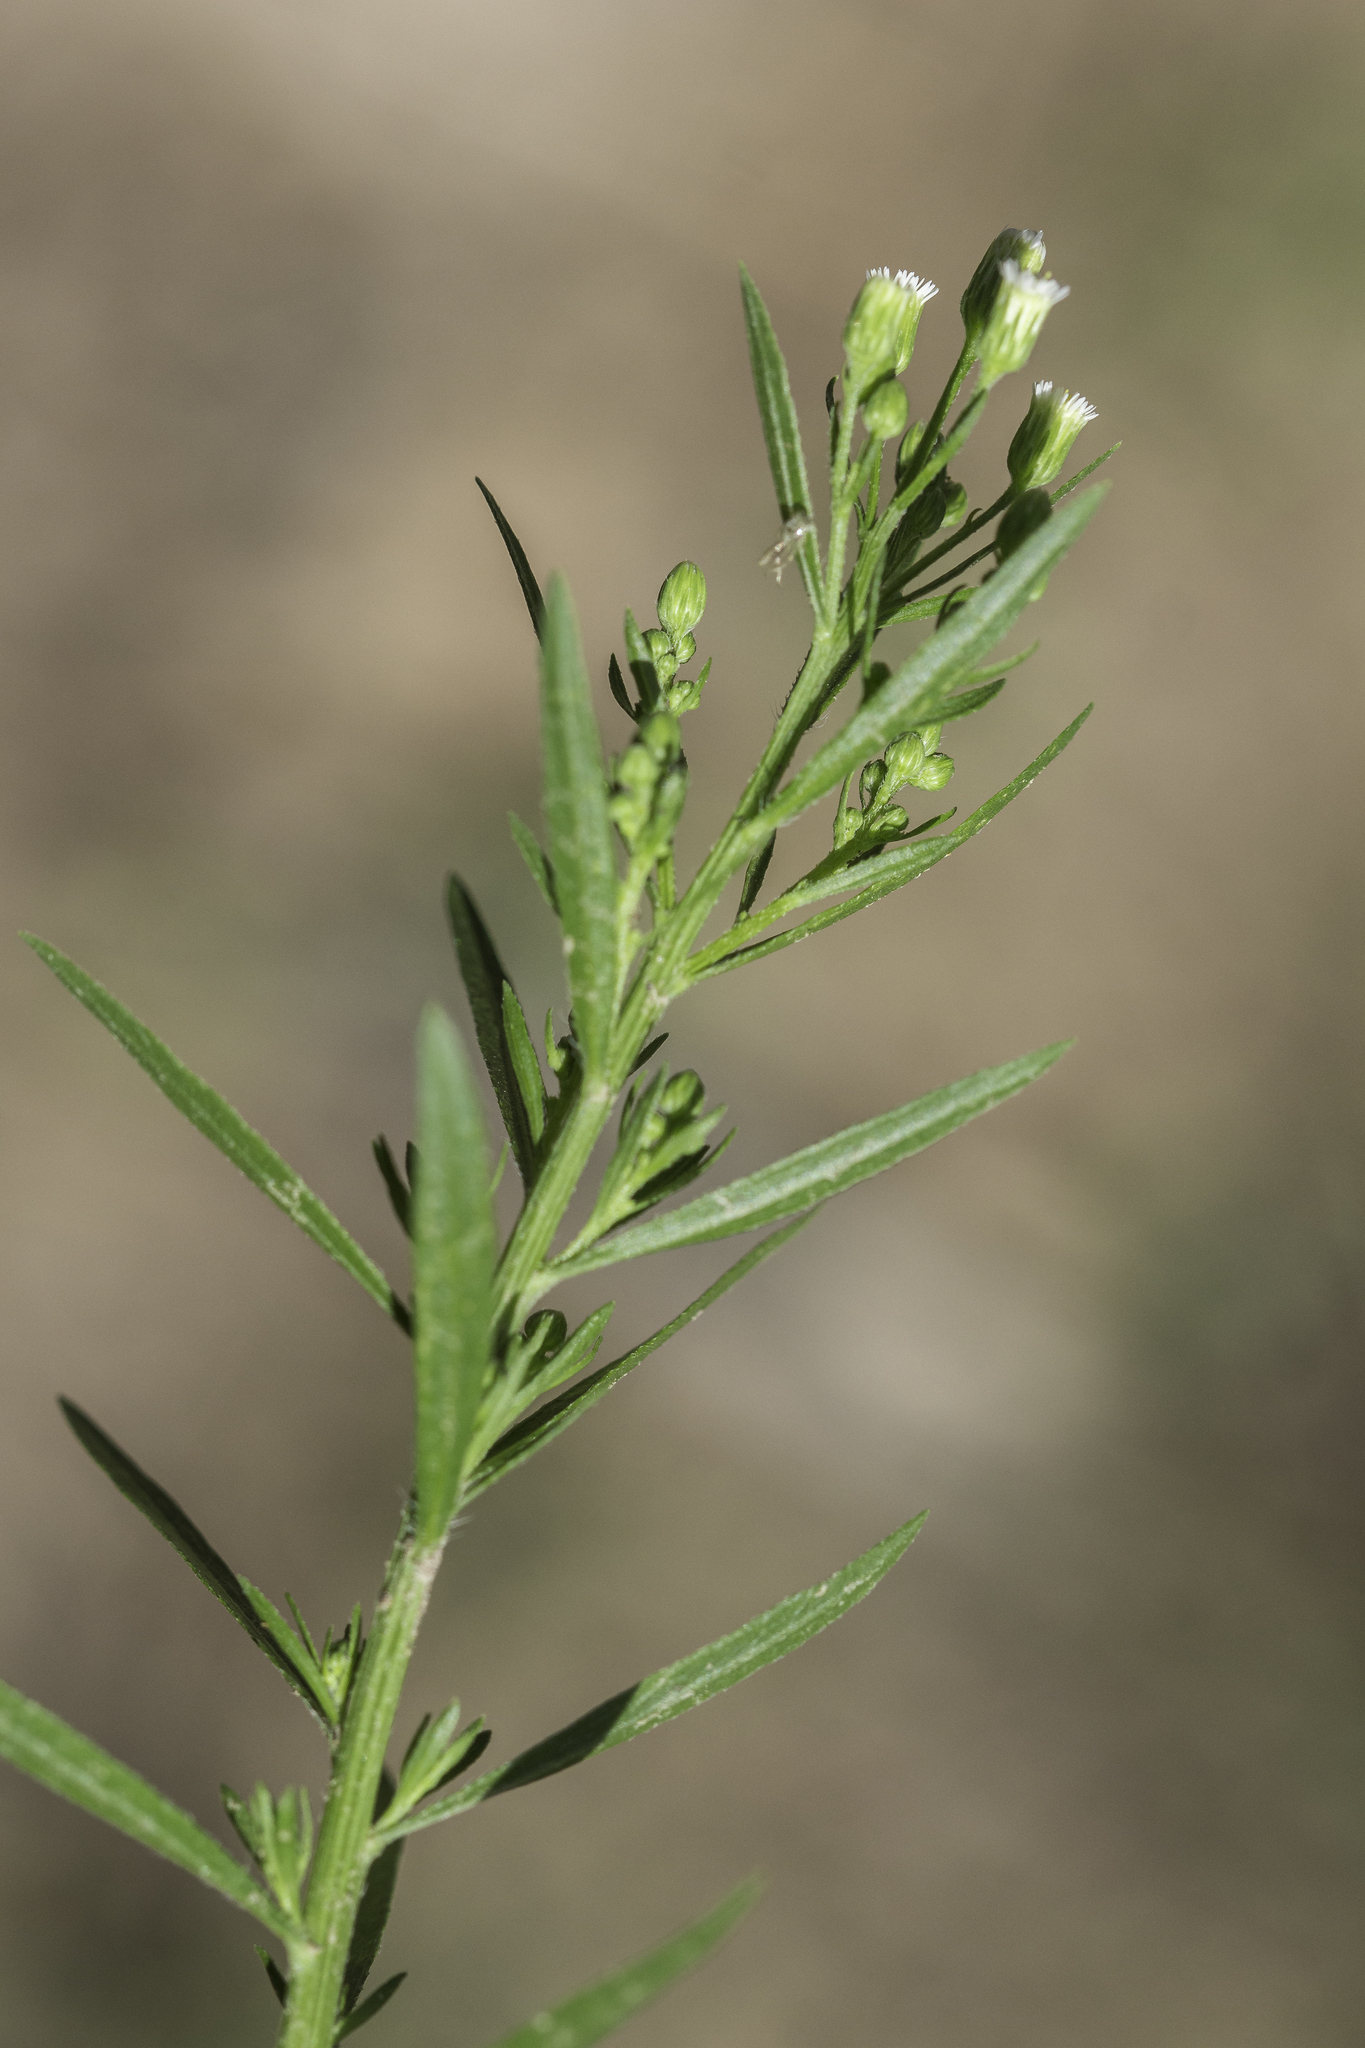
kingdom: Plantae
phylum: Tracheophyta
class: Magnoliopsida
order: Asterales
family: Asteraceae
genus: Erigeron
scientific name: Erigeron canadensis
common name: Canadian fleabane
